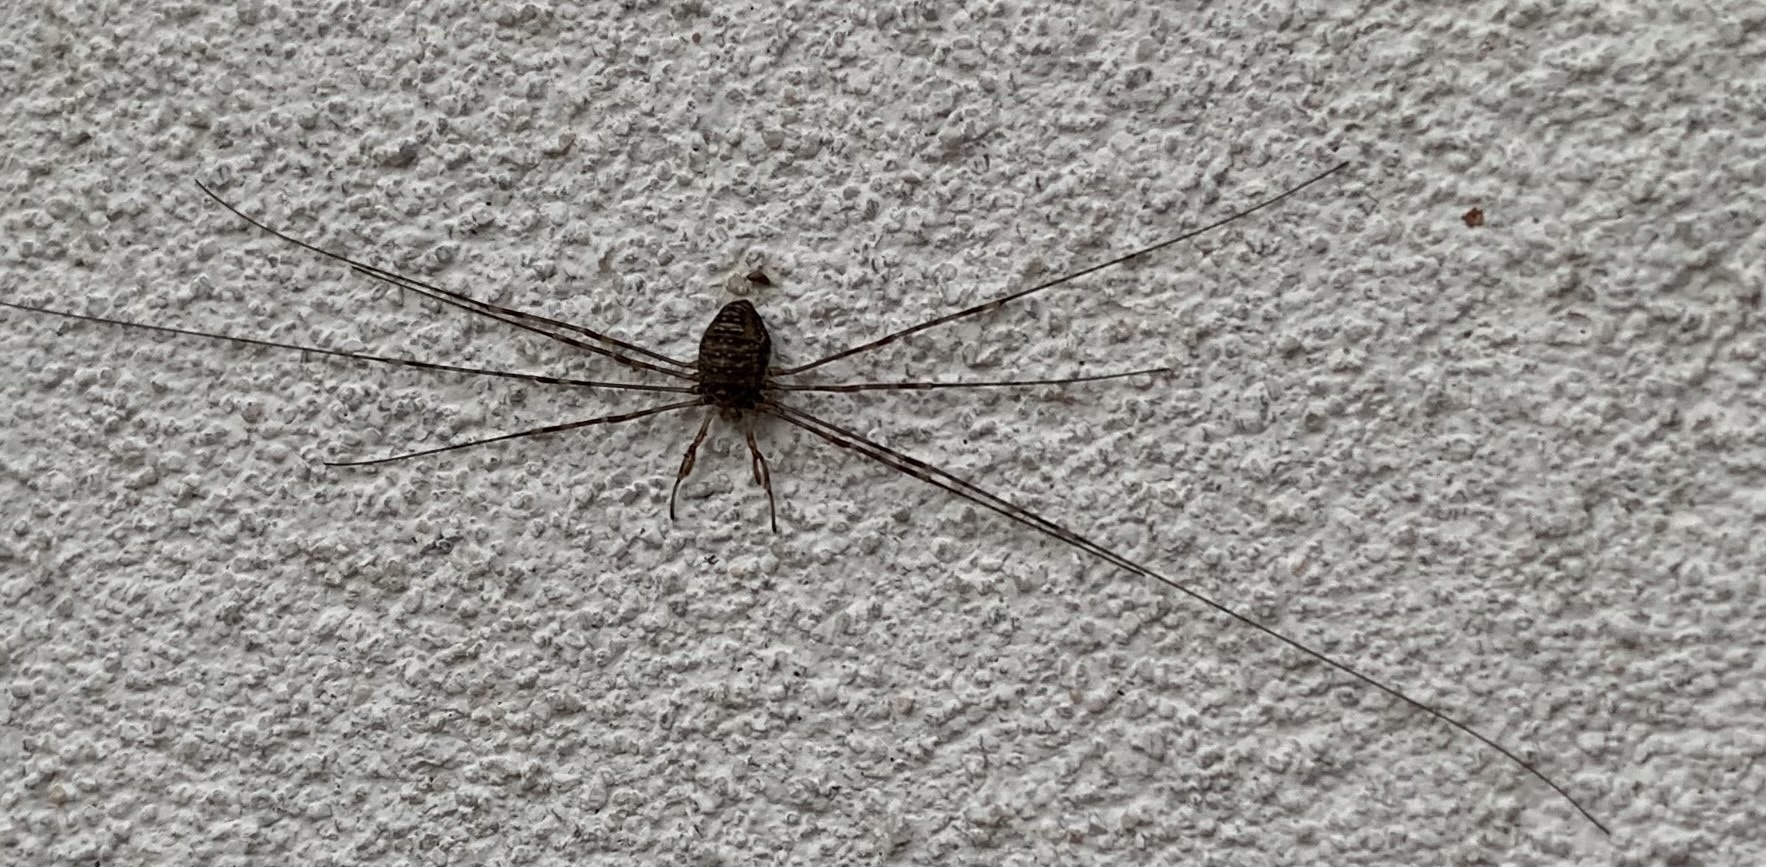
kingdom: Animalia
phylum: Arthropoda
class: Arachnida
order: Opiliones
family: Phalangiidae
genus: Dicranopalpus
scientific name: Dicranopalpus ramosus
